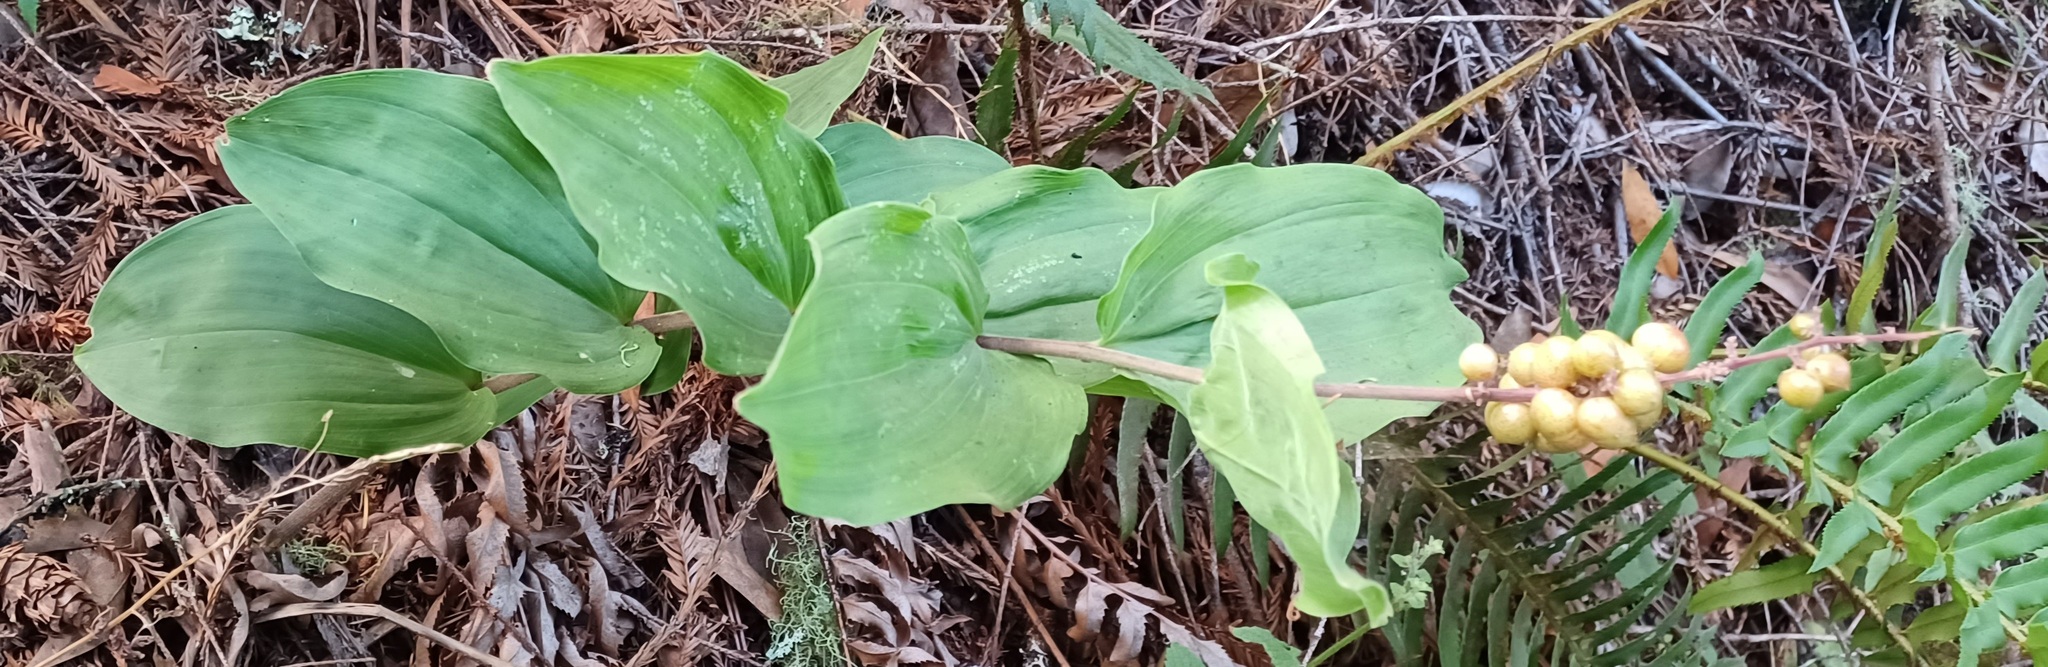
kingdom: Plantae
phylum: Tracheophyta
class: Liliopsida
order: Asparagales
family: Asparagaceae
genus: Maianthemum
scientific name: Maianthemum racemosum
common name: False spikenard
